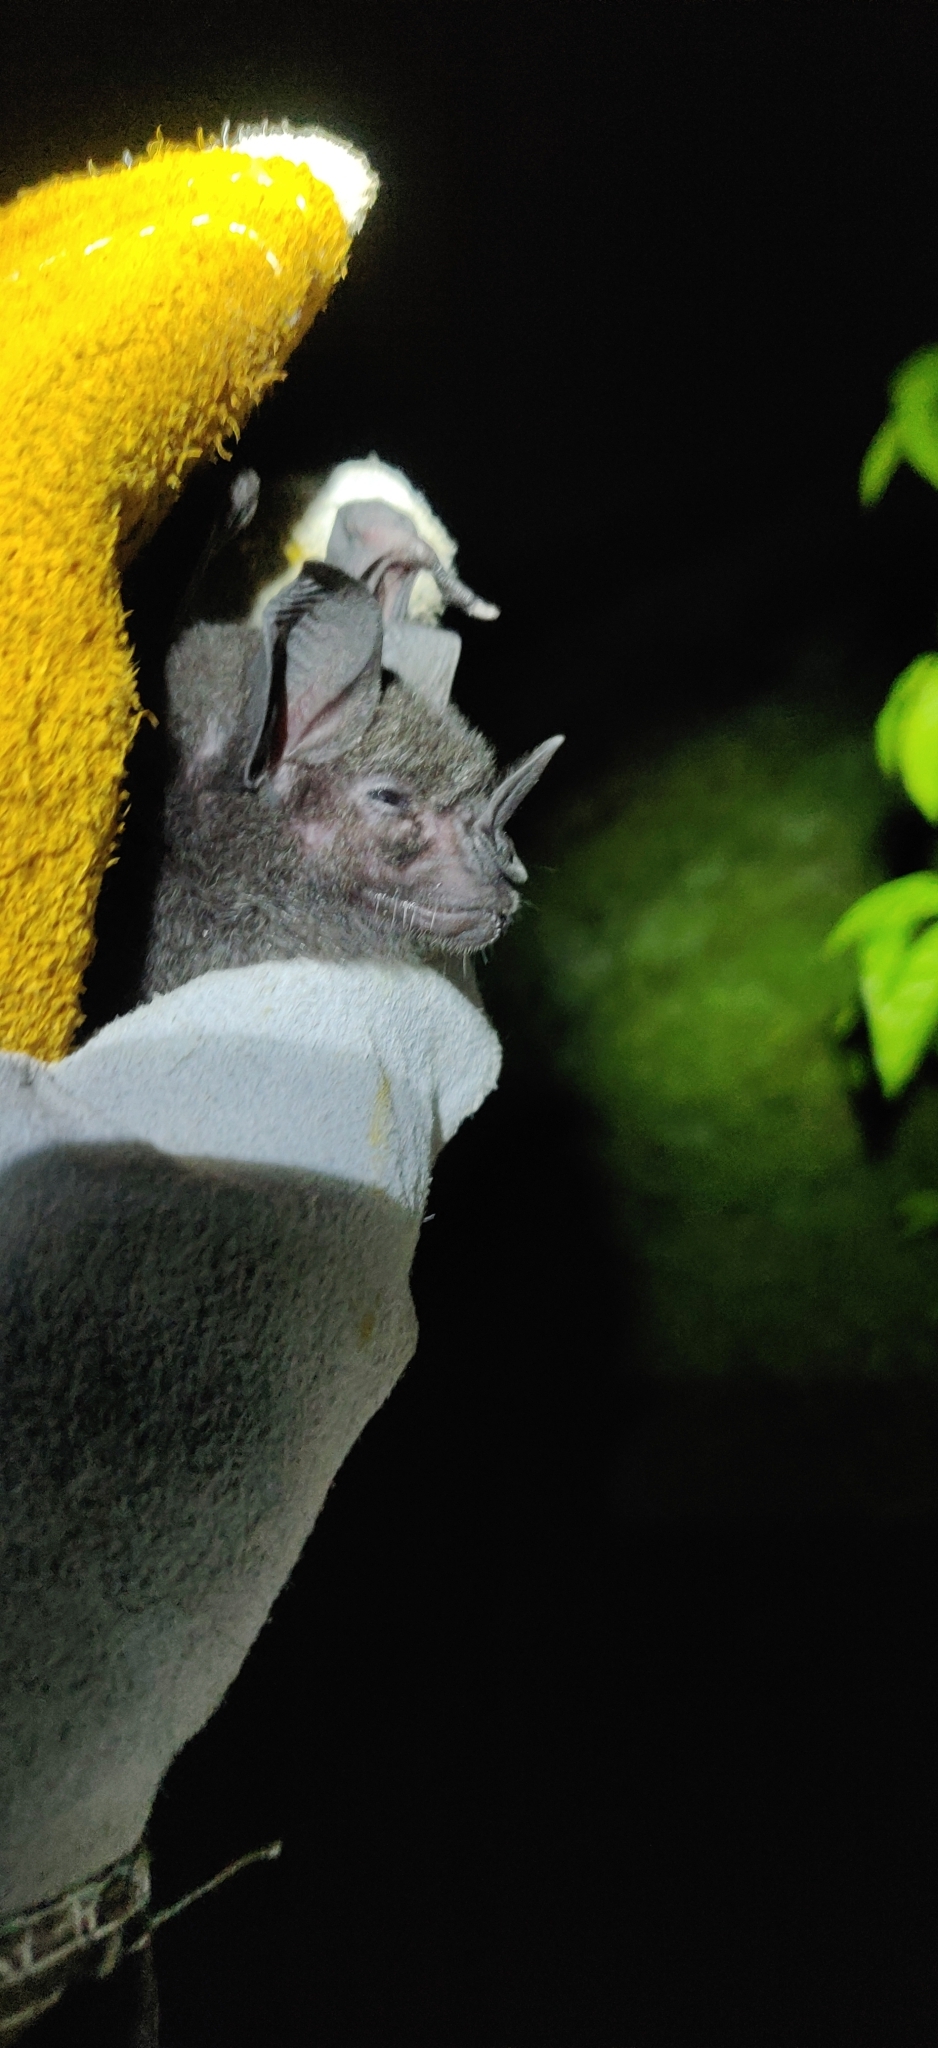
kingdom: Animalia
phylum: Chordata
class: Mammalia
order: Chiroptera
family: Phyllostomidae
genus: Phyllostomus
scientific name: Phyllostomus hastatus
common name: Greater spear-nosed bat
